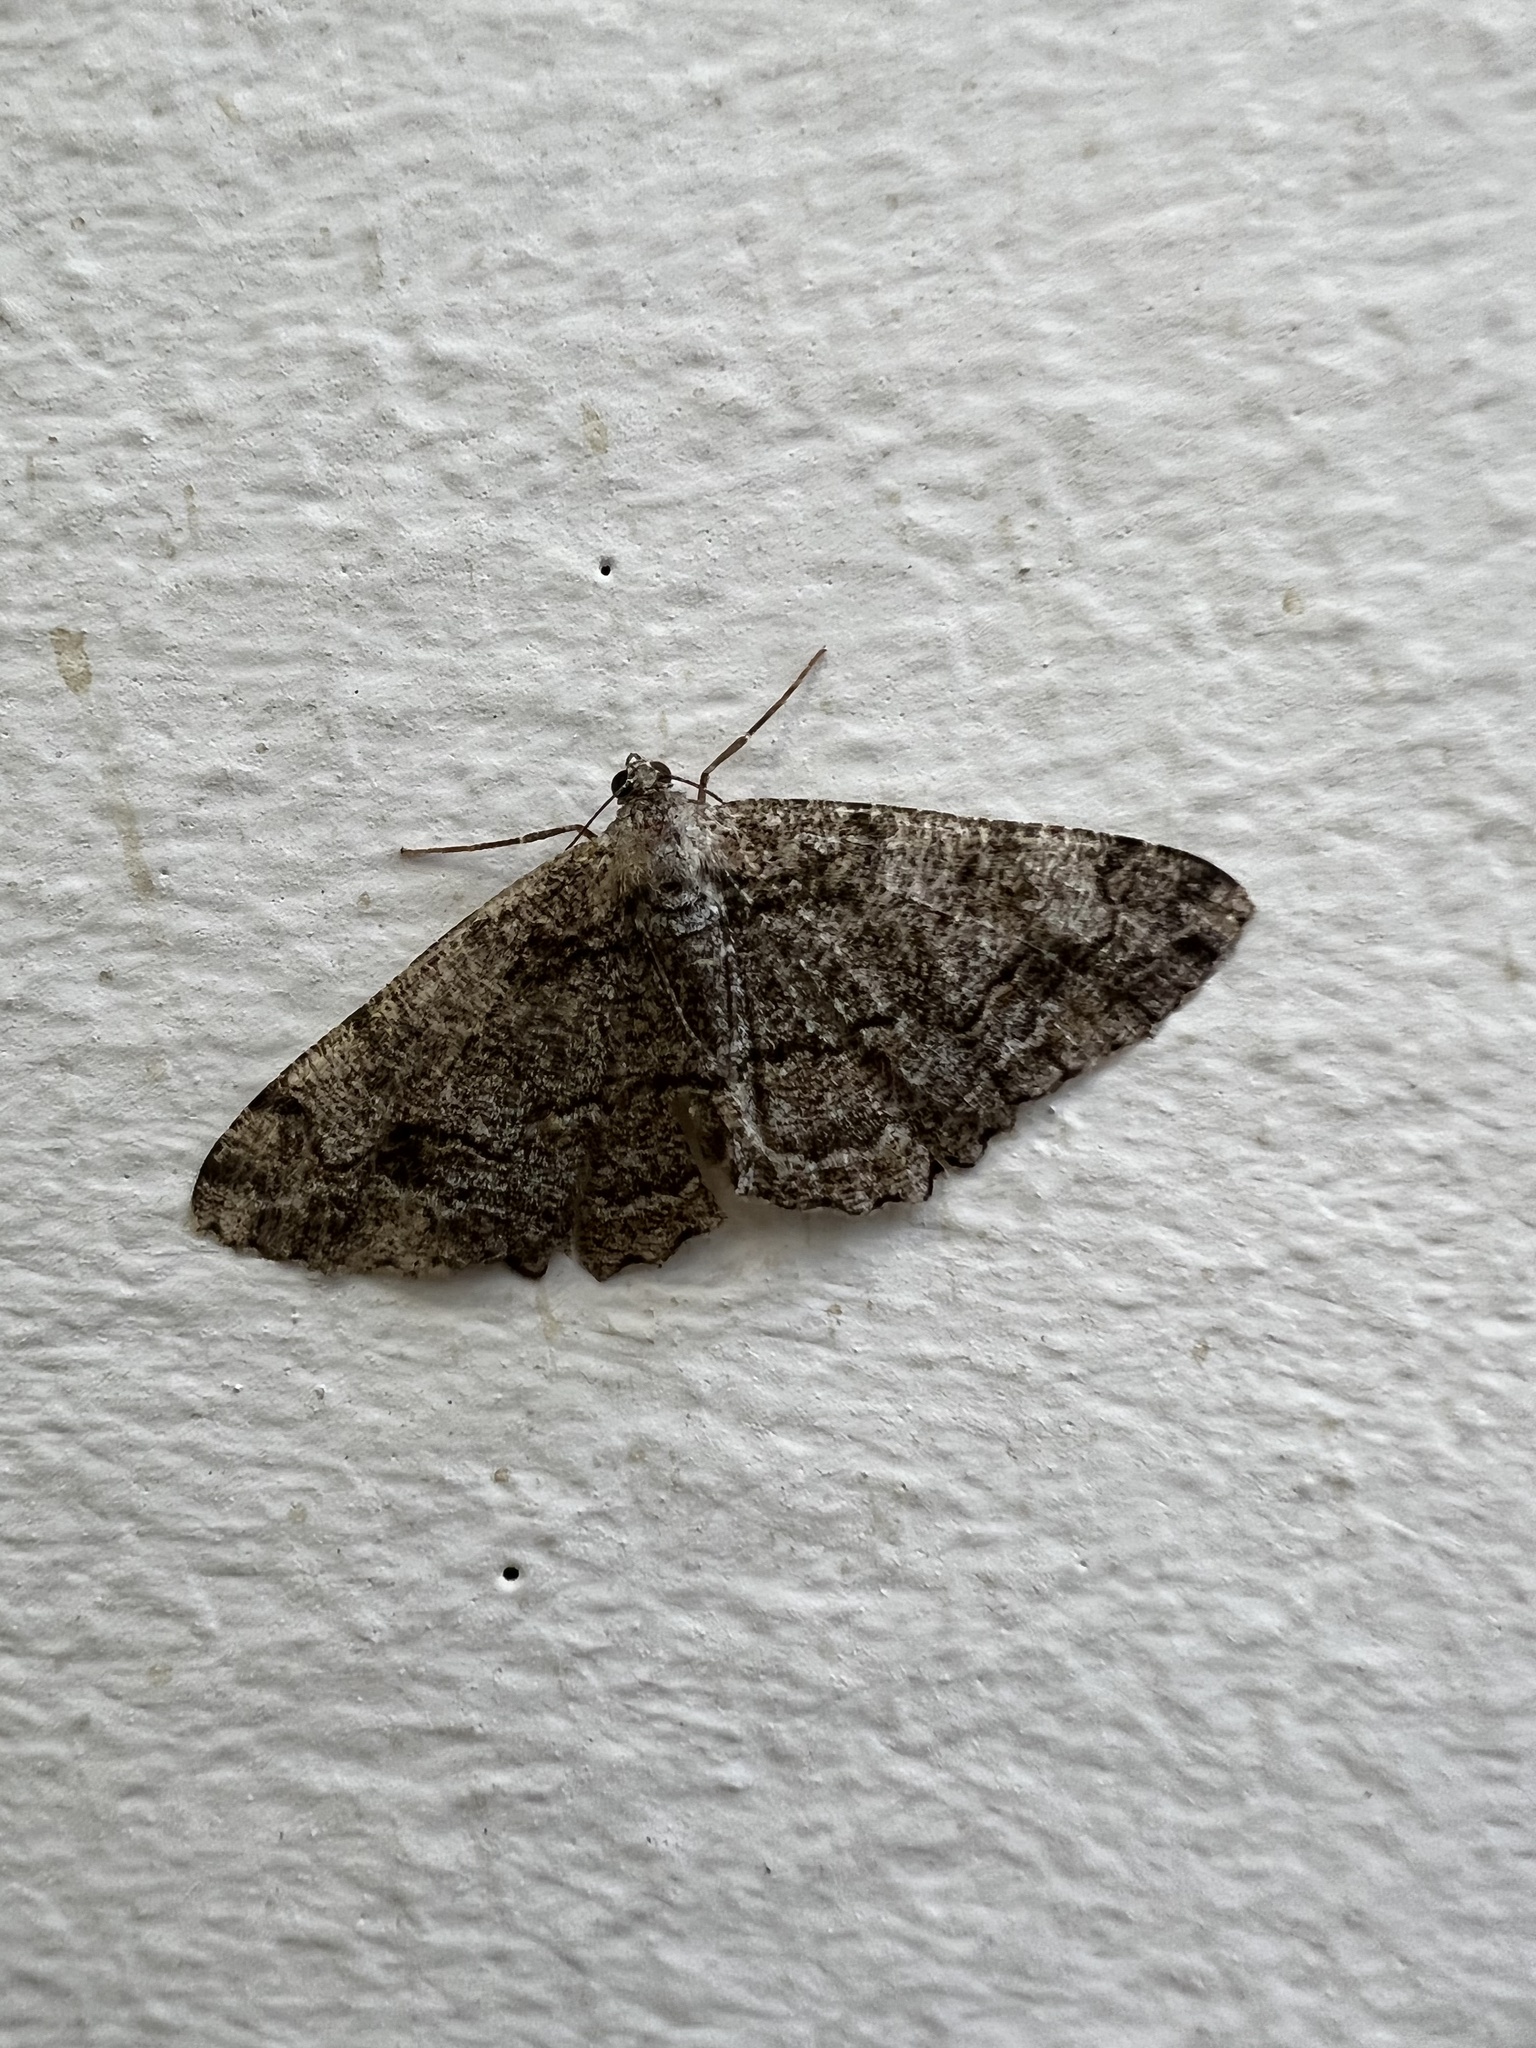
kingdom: Animalia
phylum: Arthropoda
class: Insecta
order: Lepidoptera
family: Geometridae
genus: Alcis
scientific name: Alcis repandata
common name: Mottled beauty
